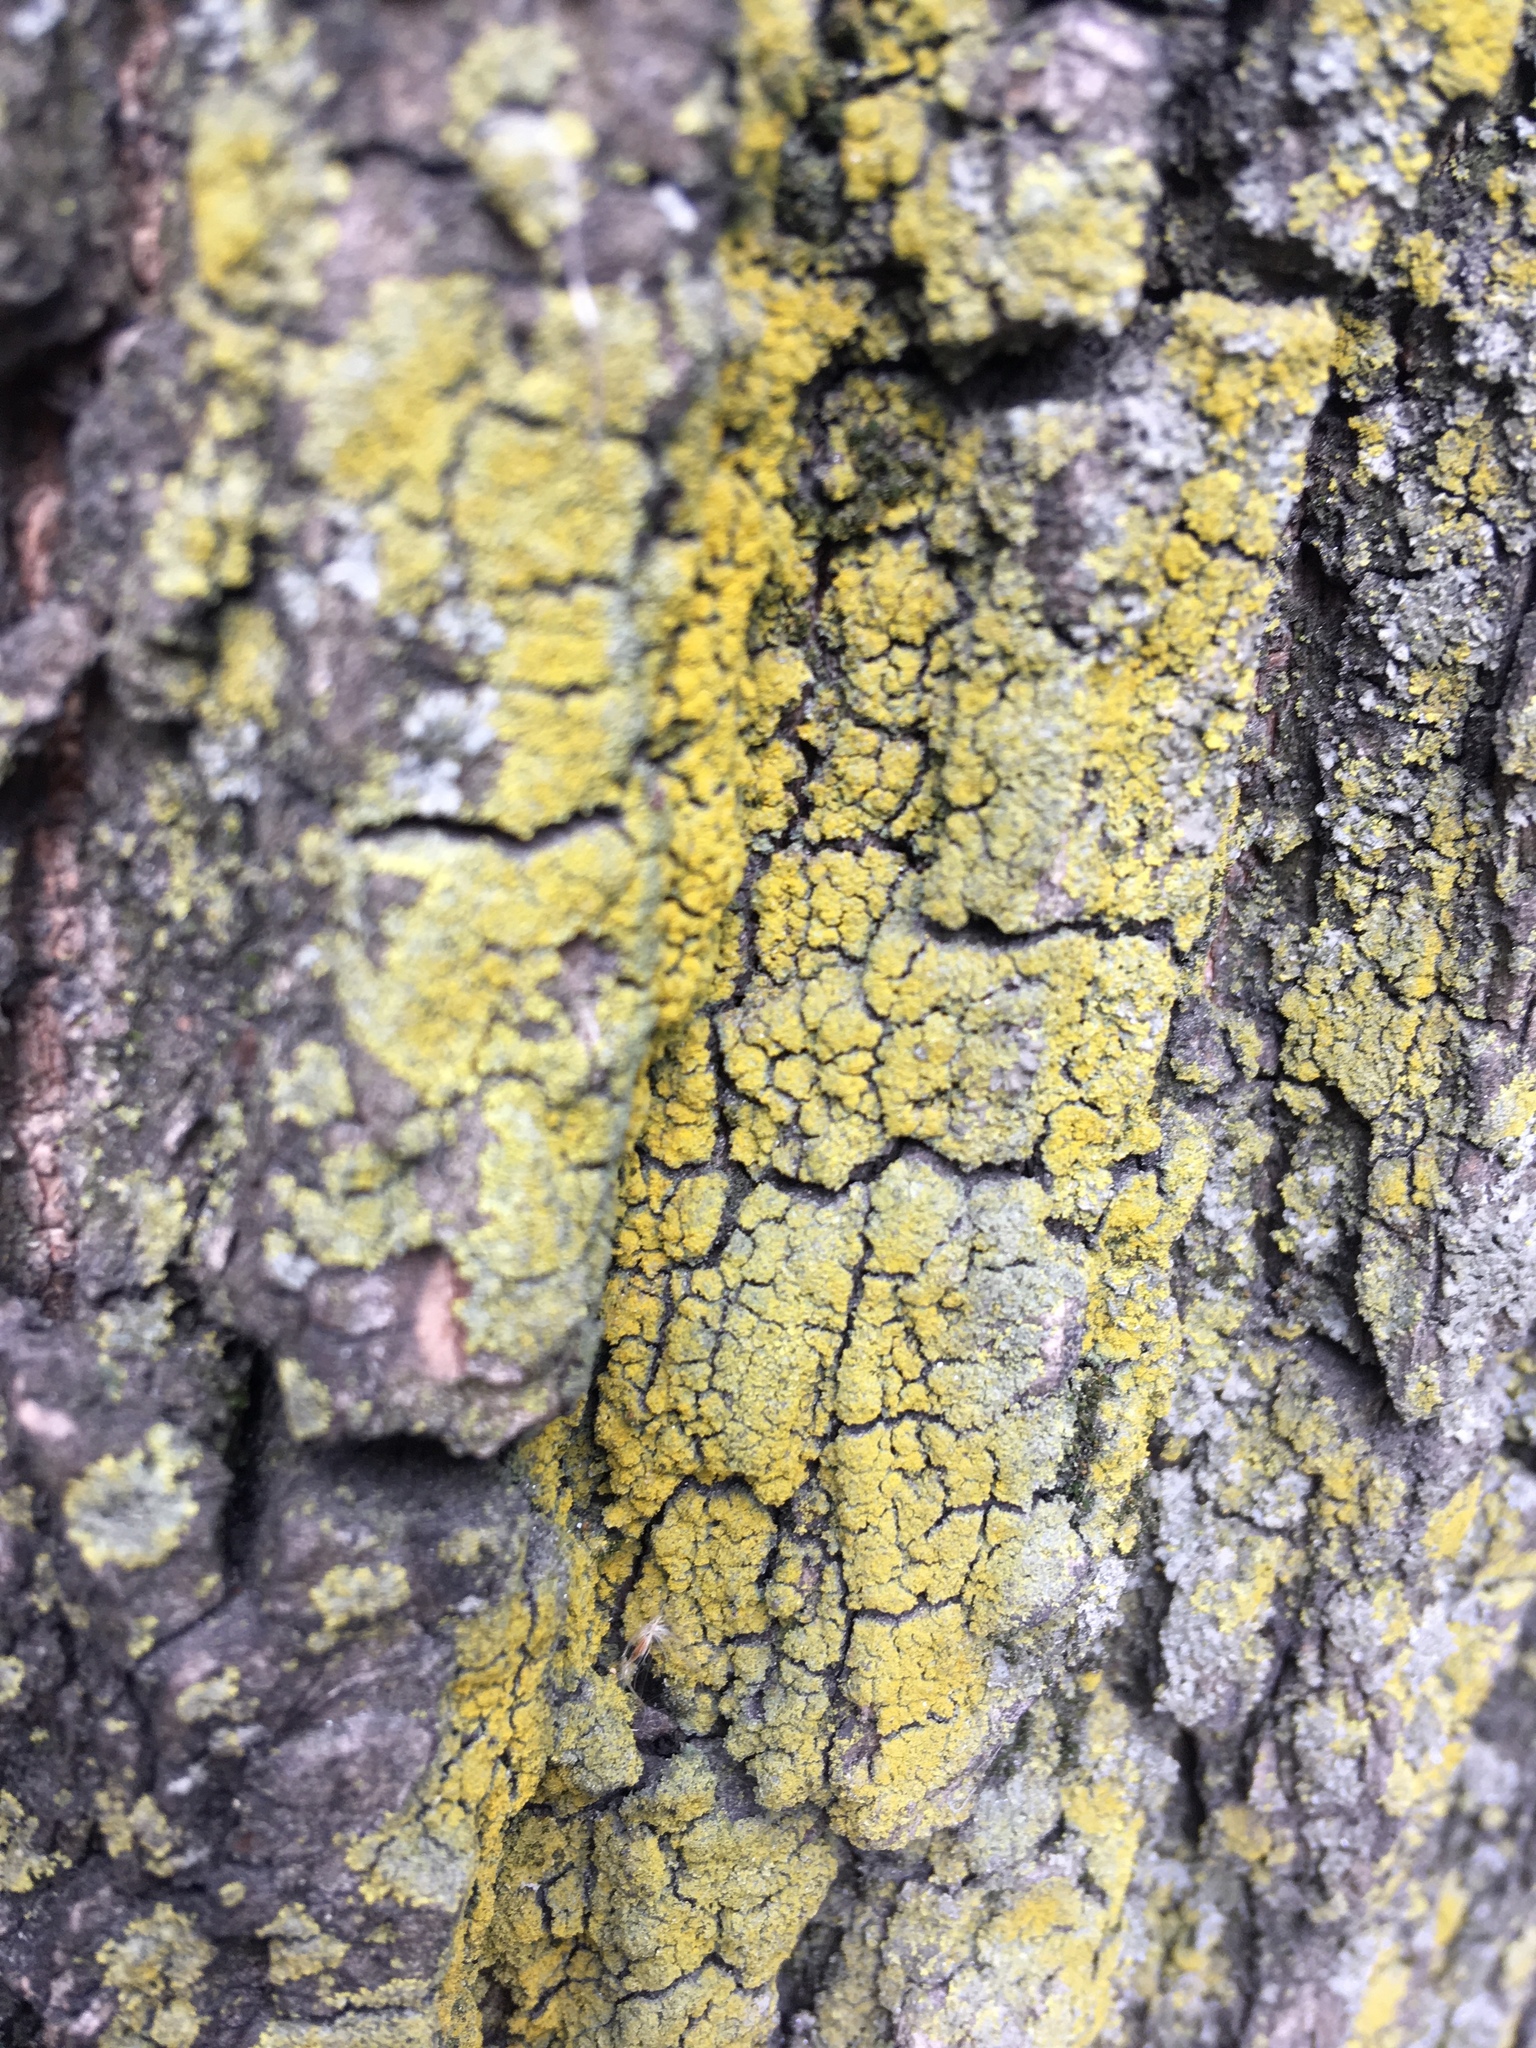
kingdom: Fungi
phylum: Ascomycota
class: Candelariomycetes
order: Candelariales
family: Candelariaceae
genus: Candelaria
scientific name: Candelaria concolor
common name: Candleflame lichen
